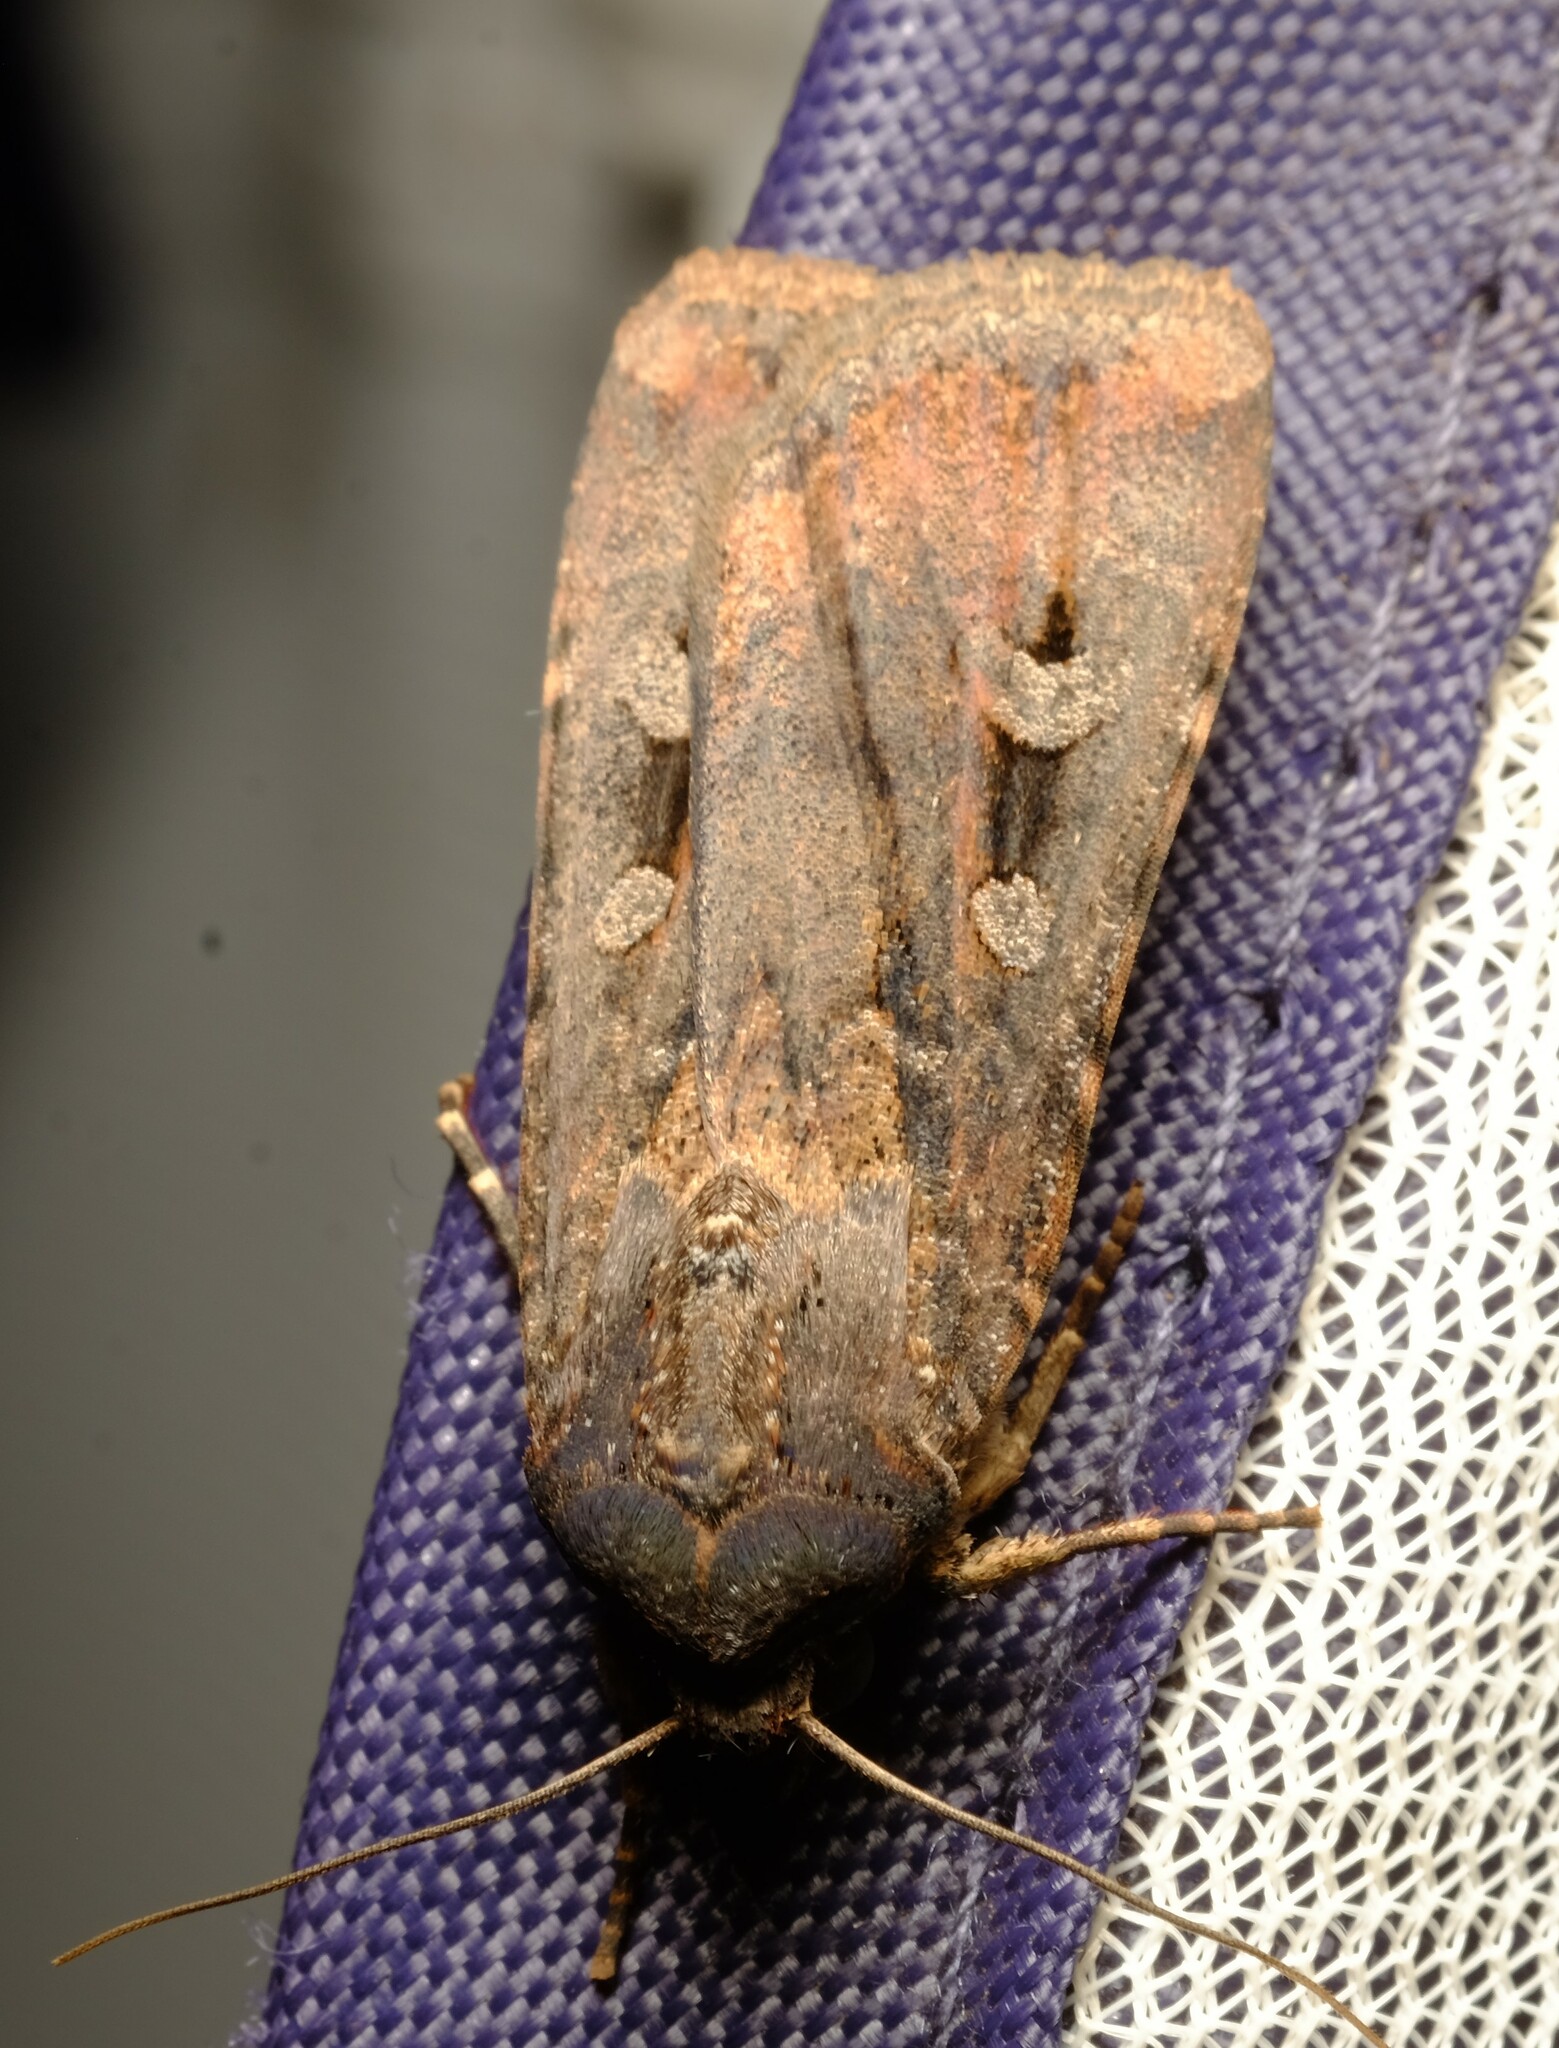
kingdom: Animalia
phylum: Arthropoda
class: Insecta
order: Lepidoptera
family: Noctuidae
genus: Agrotis
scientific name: Agrotis infusa
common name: Bogong moth
